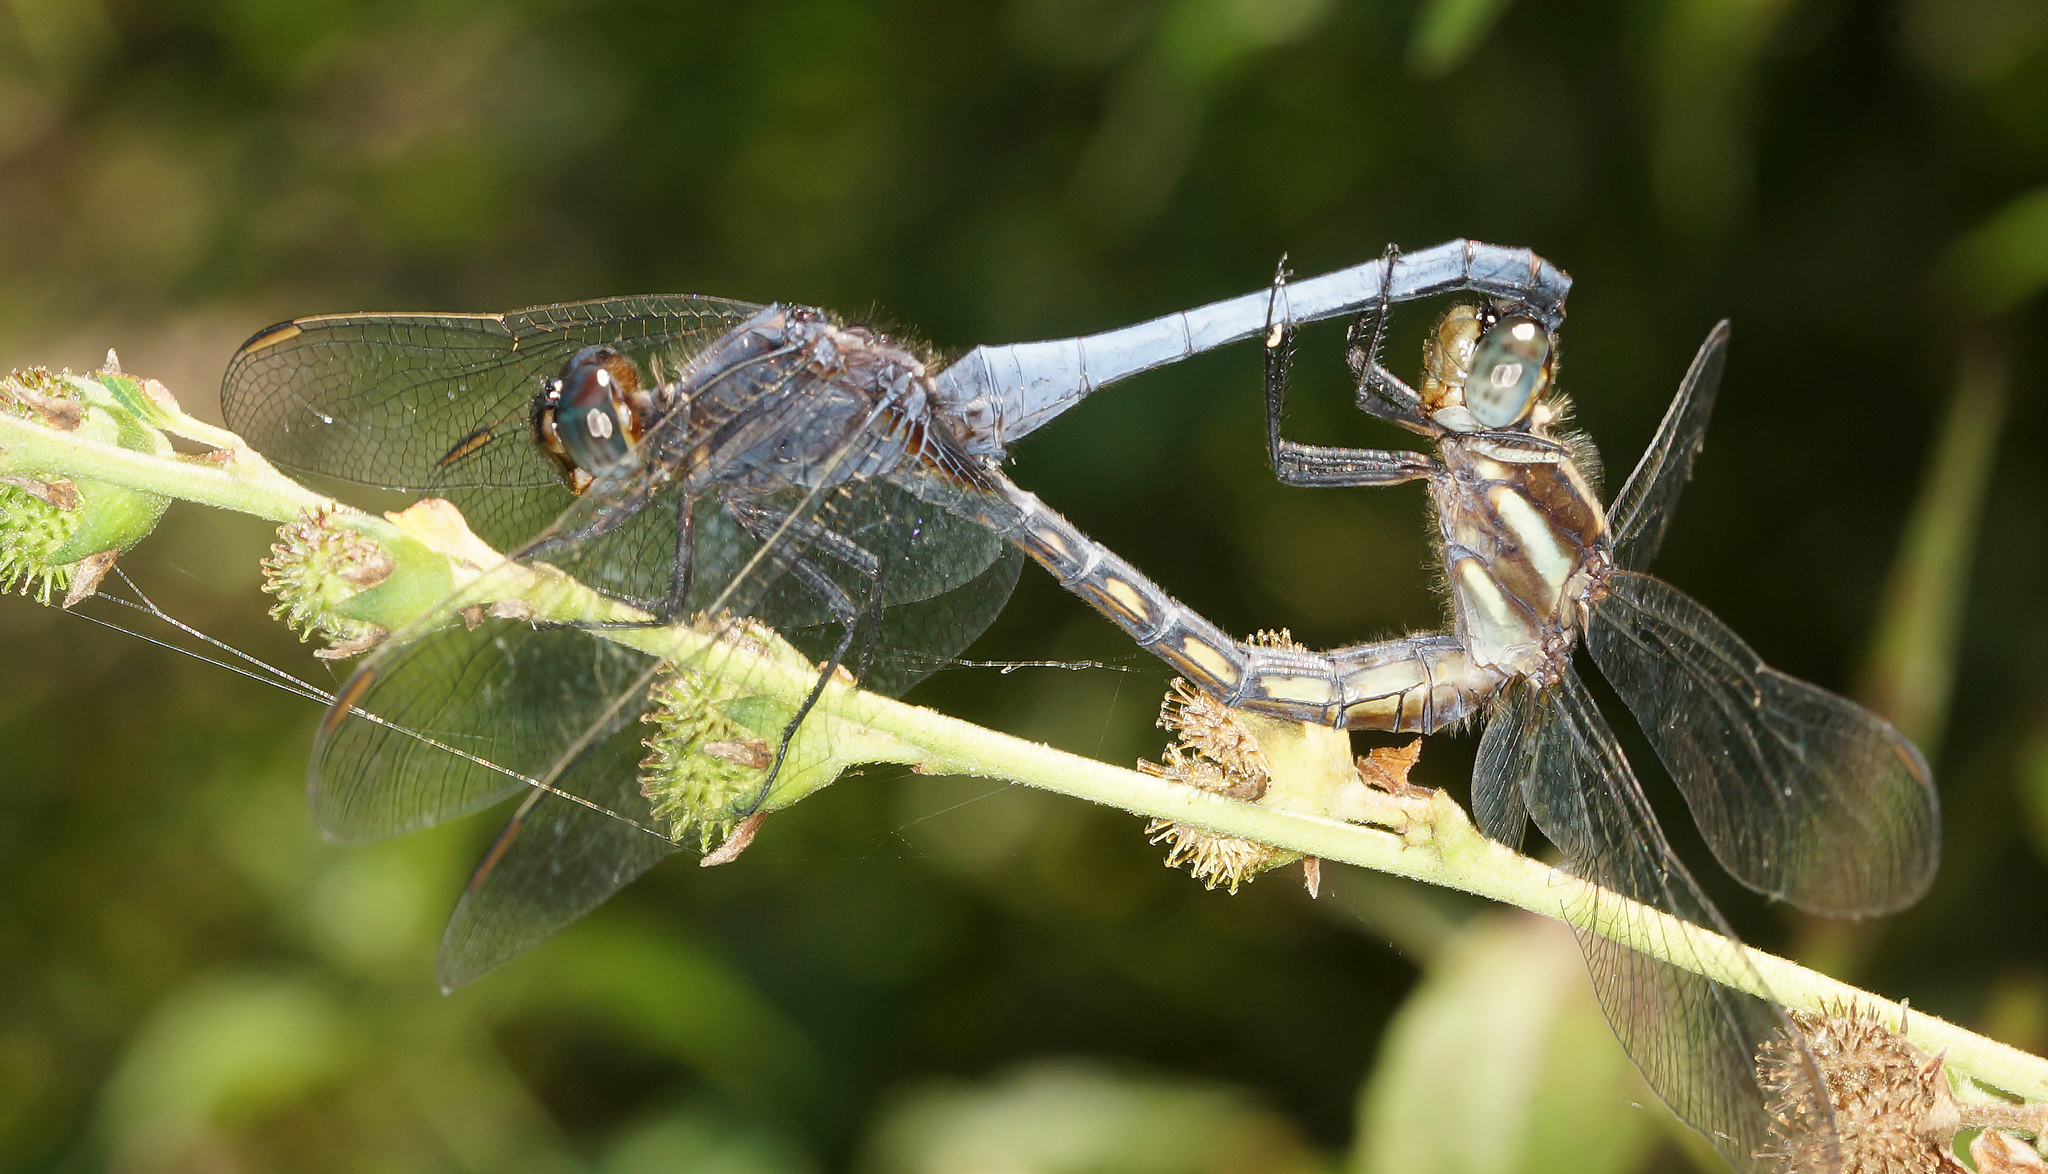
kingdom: Animalia
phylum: Arthropoda
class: Insecta
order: Odonata
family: Libellulidae
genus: Orthetrum
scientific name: Orthetrum glaucum
